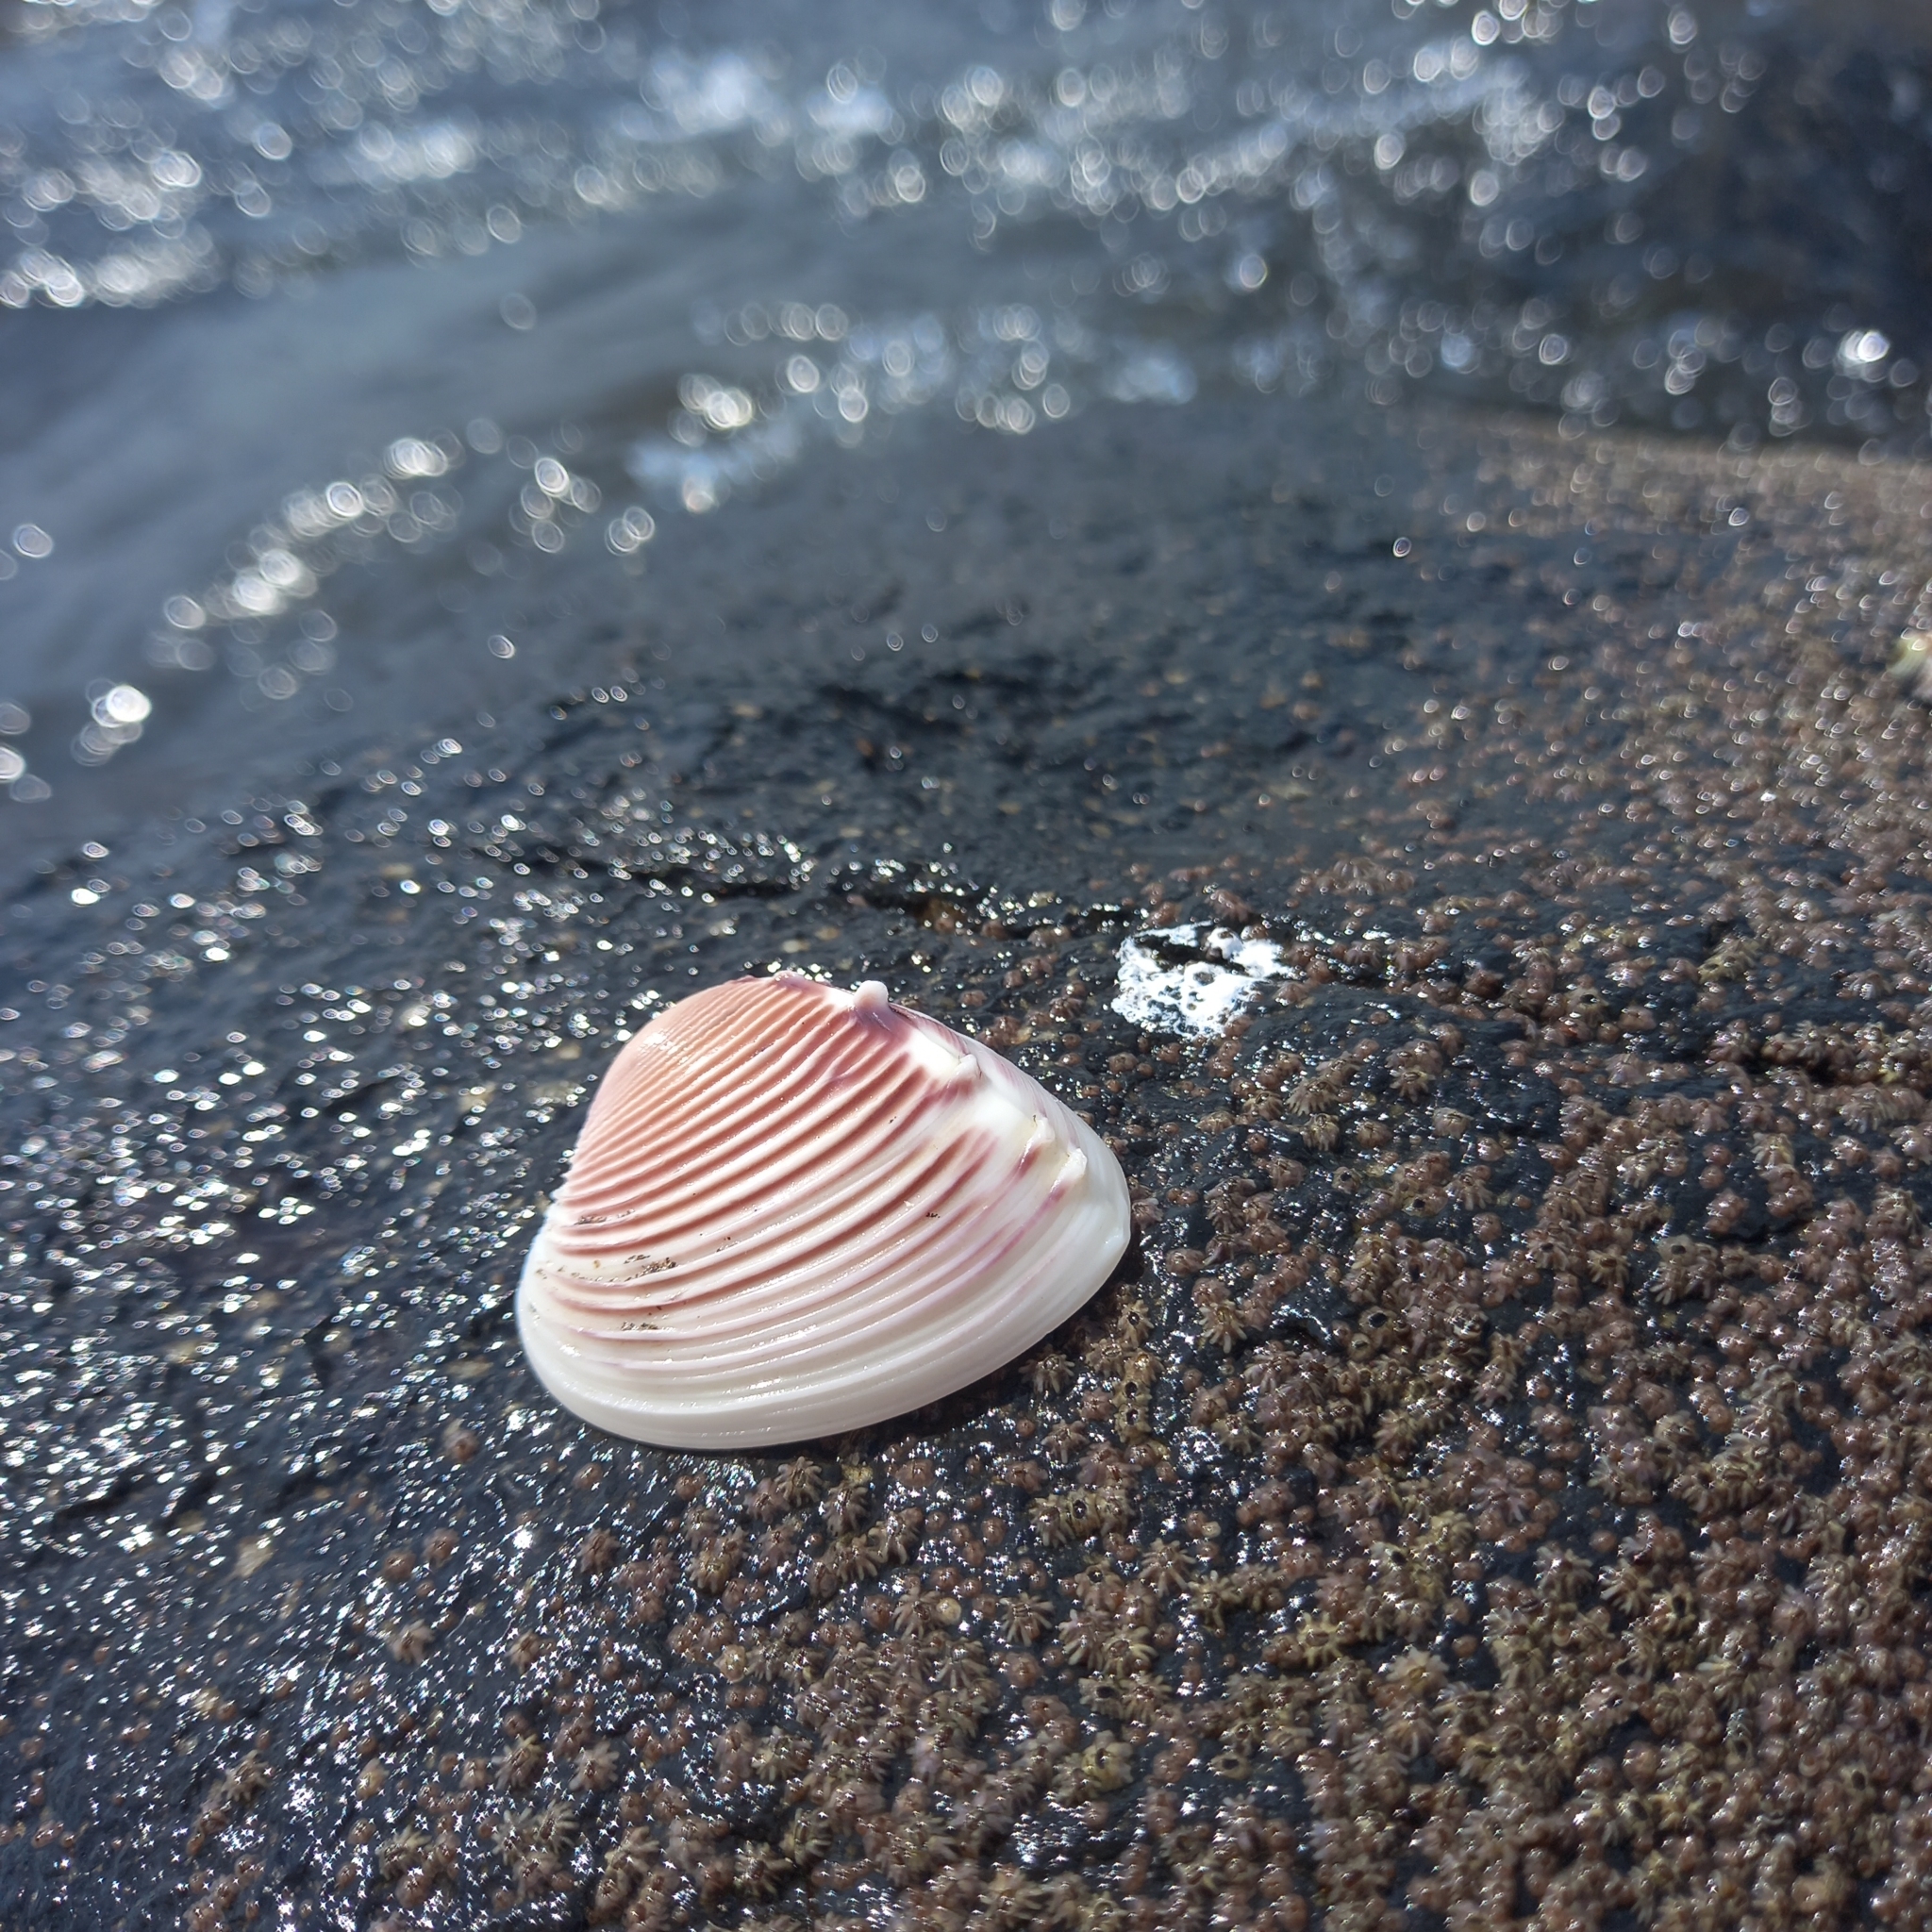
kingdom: Animalia
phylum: Mollusca
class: Bivalvia
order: Venerida
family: Veneridae
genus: Hysteroconcha
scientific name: Hysteroconcha lupanaria
